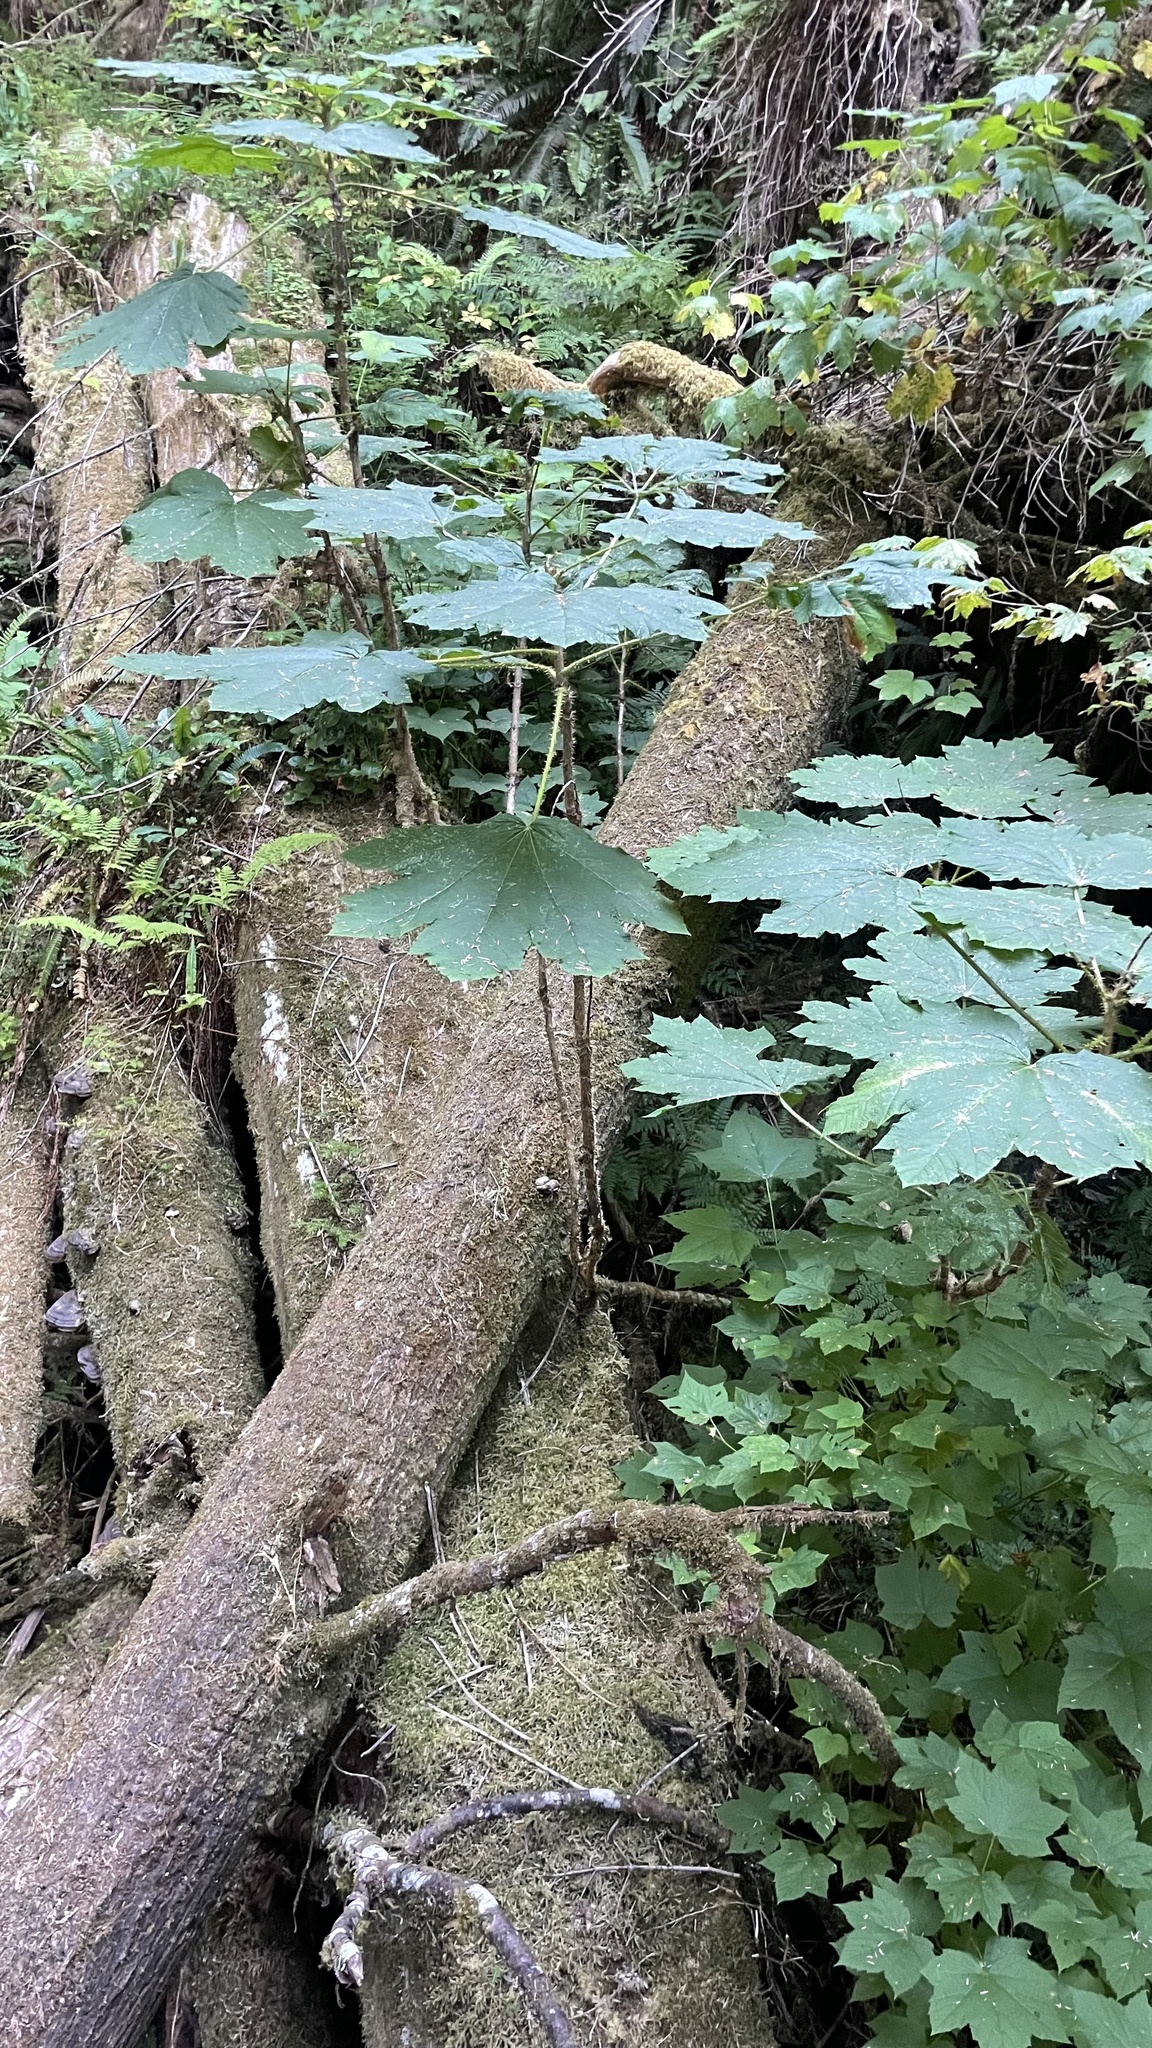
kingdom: Plantae
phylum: Tracheophyta
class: Magnoliopsida
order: Apiales
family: Araliaceae
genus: Oplopanax
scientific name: Oplopanax horridus
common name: Devil's walking-stick
